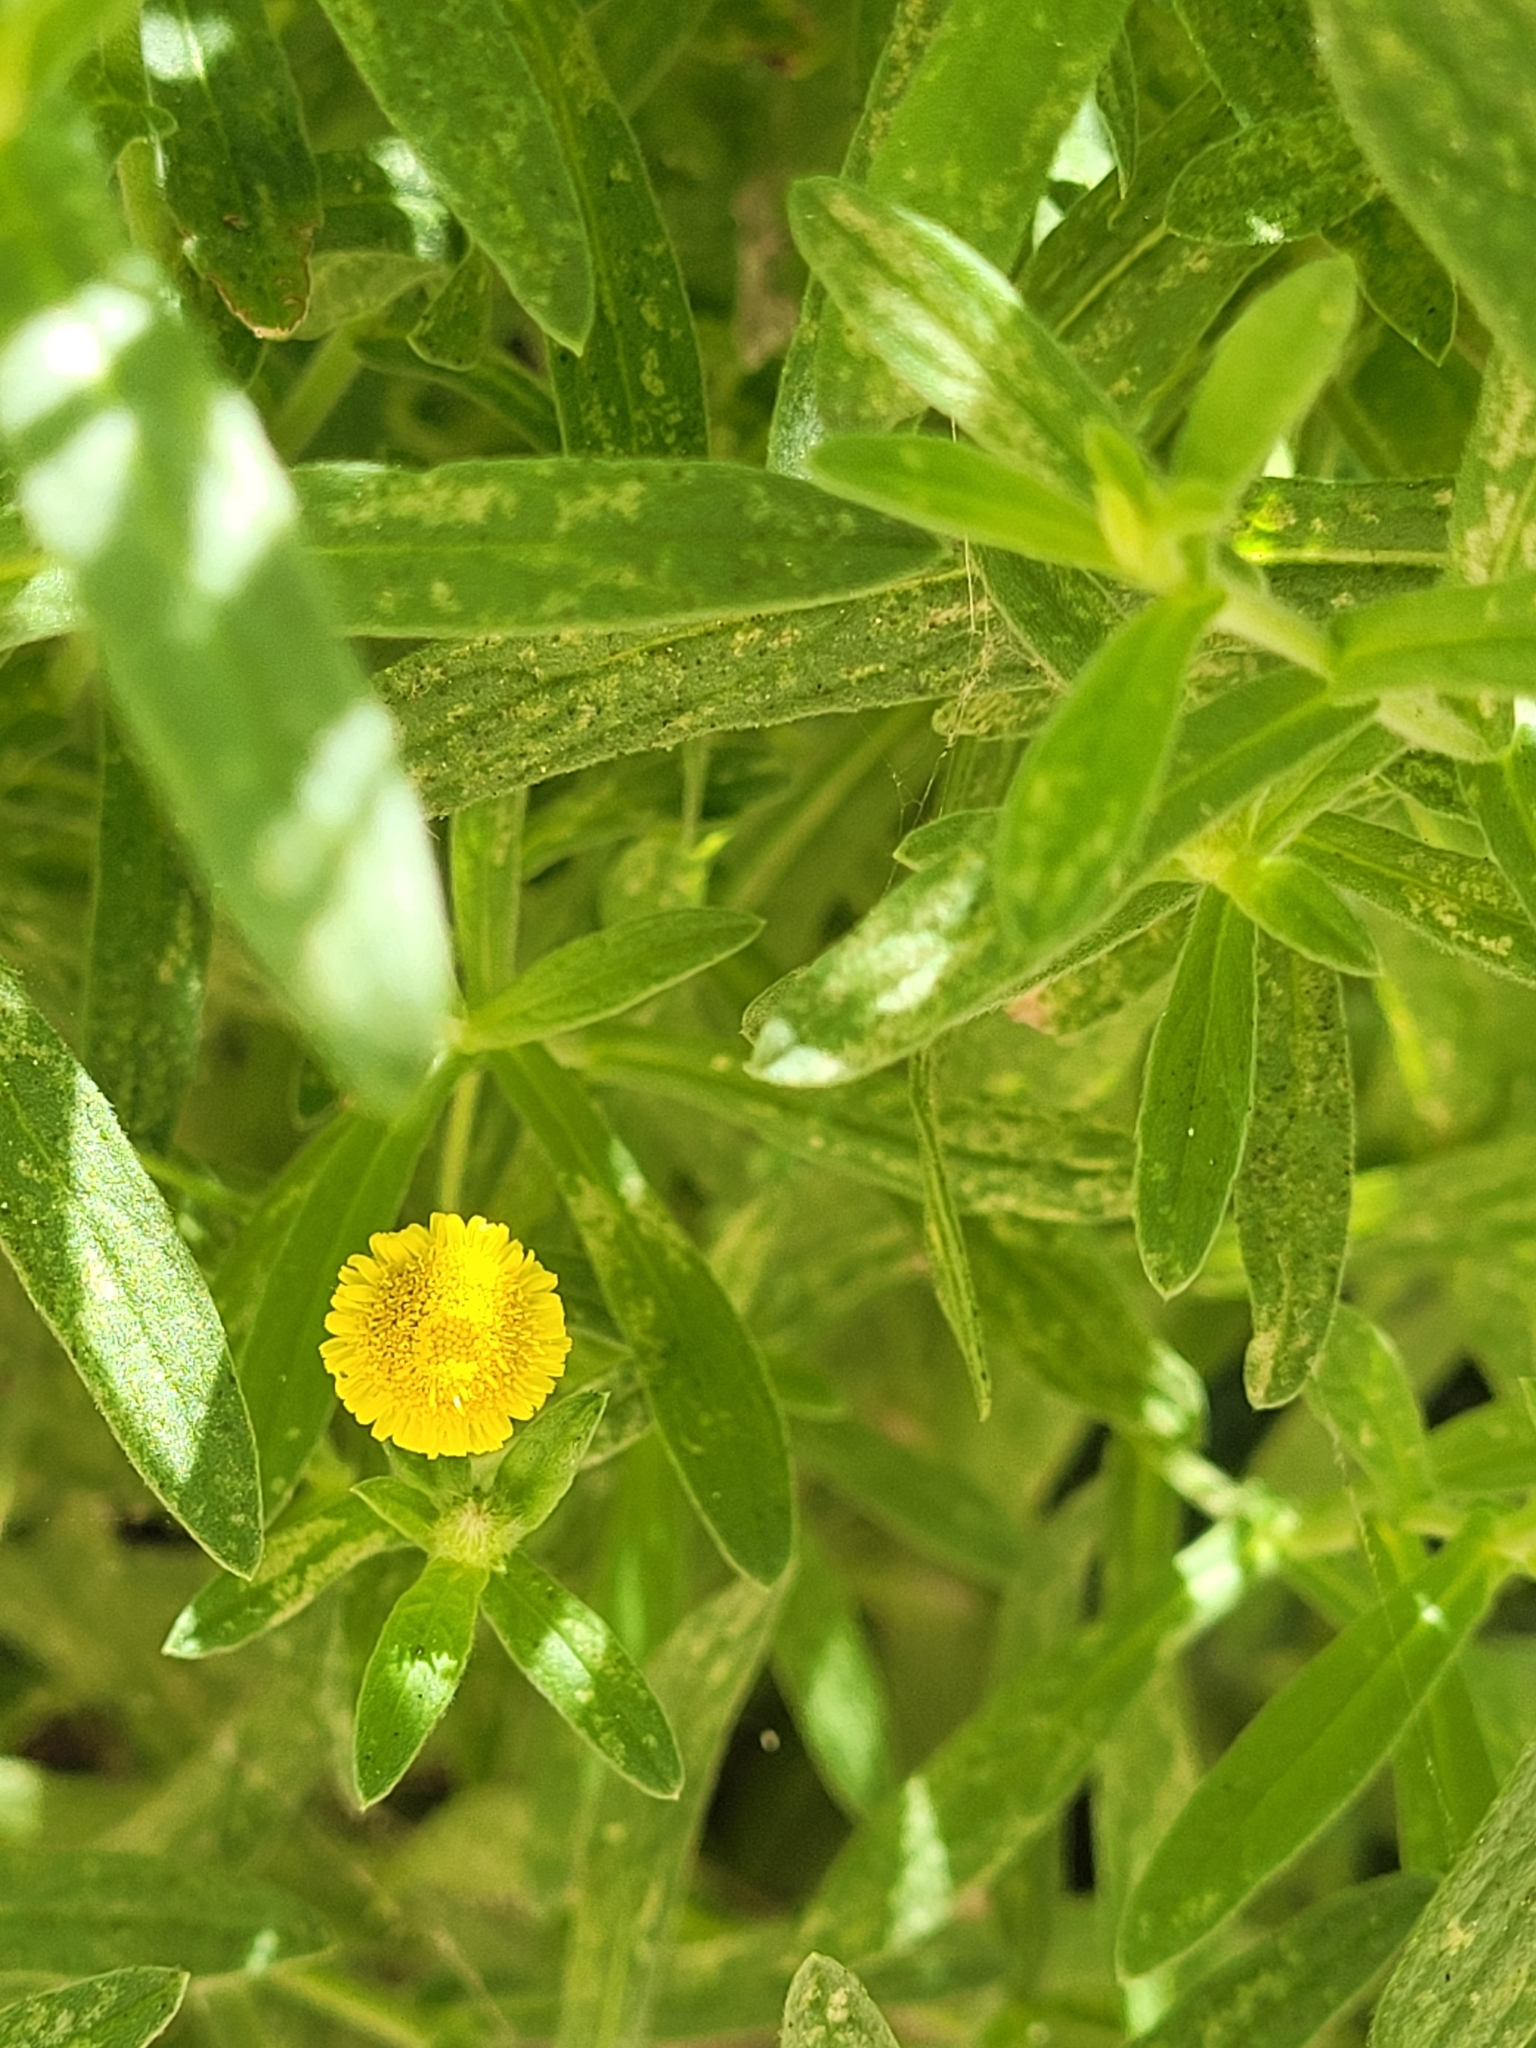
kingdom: Plantae
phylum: Tracheophyta
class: Magnoliopsida
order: Asterales
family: Asteraceae
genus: Pulicaria
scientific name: Pulicaria paludosa
